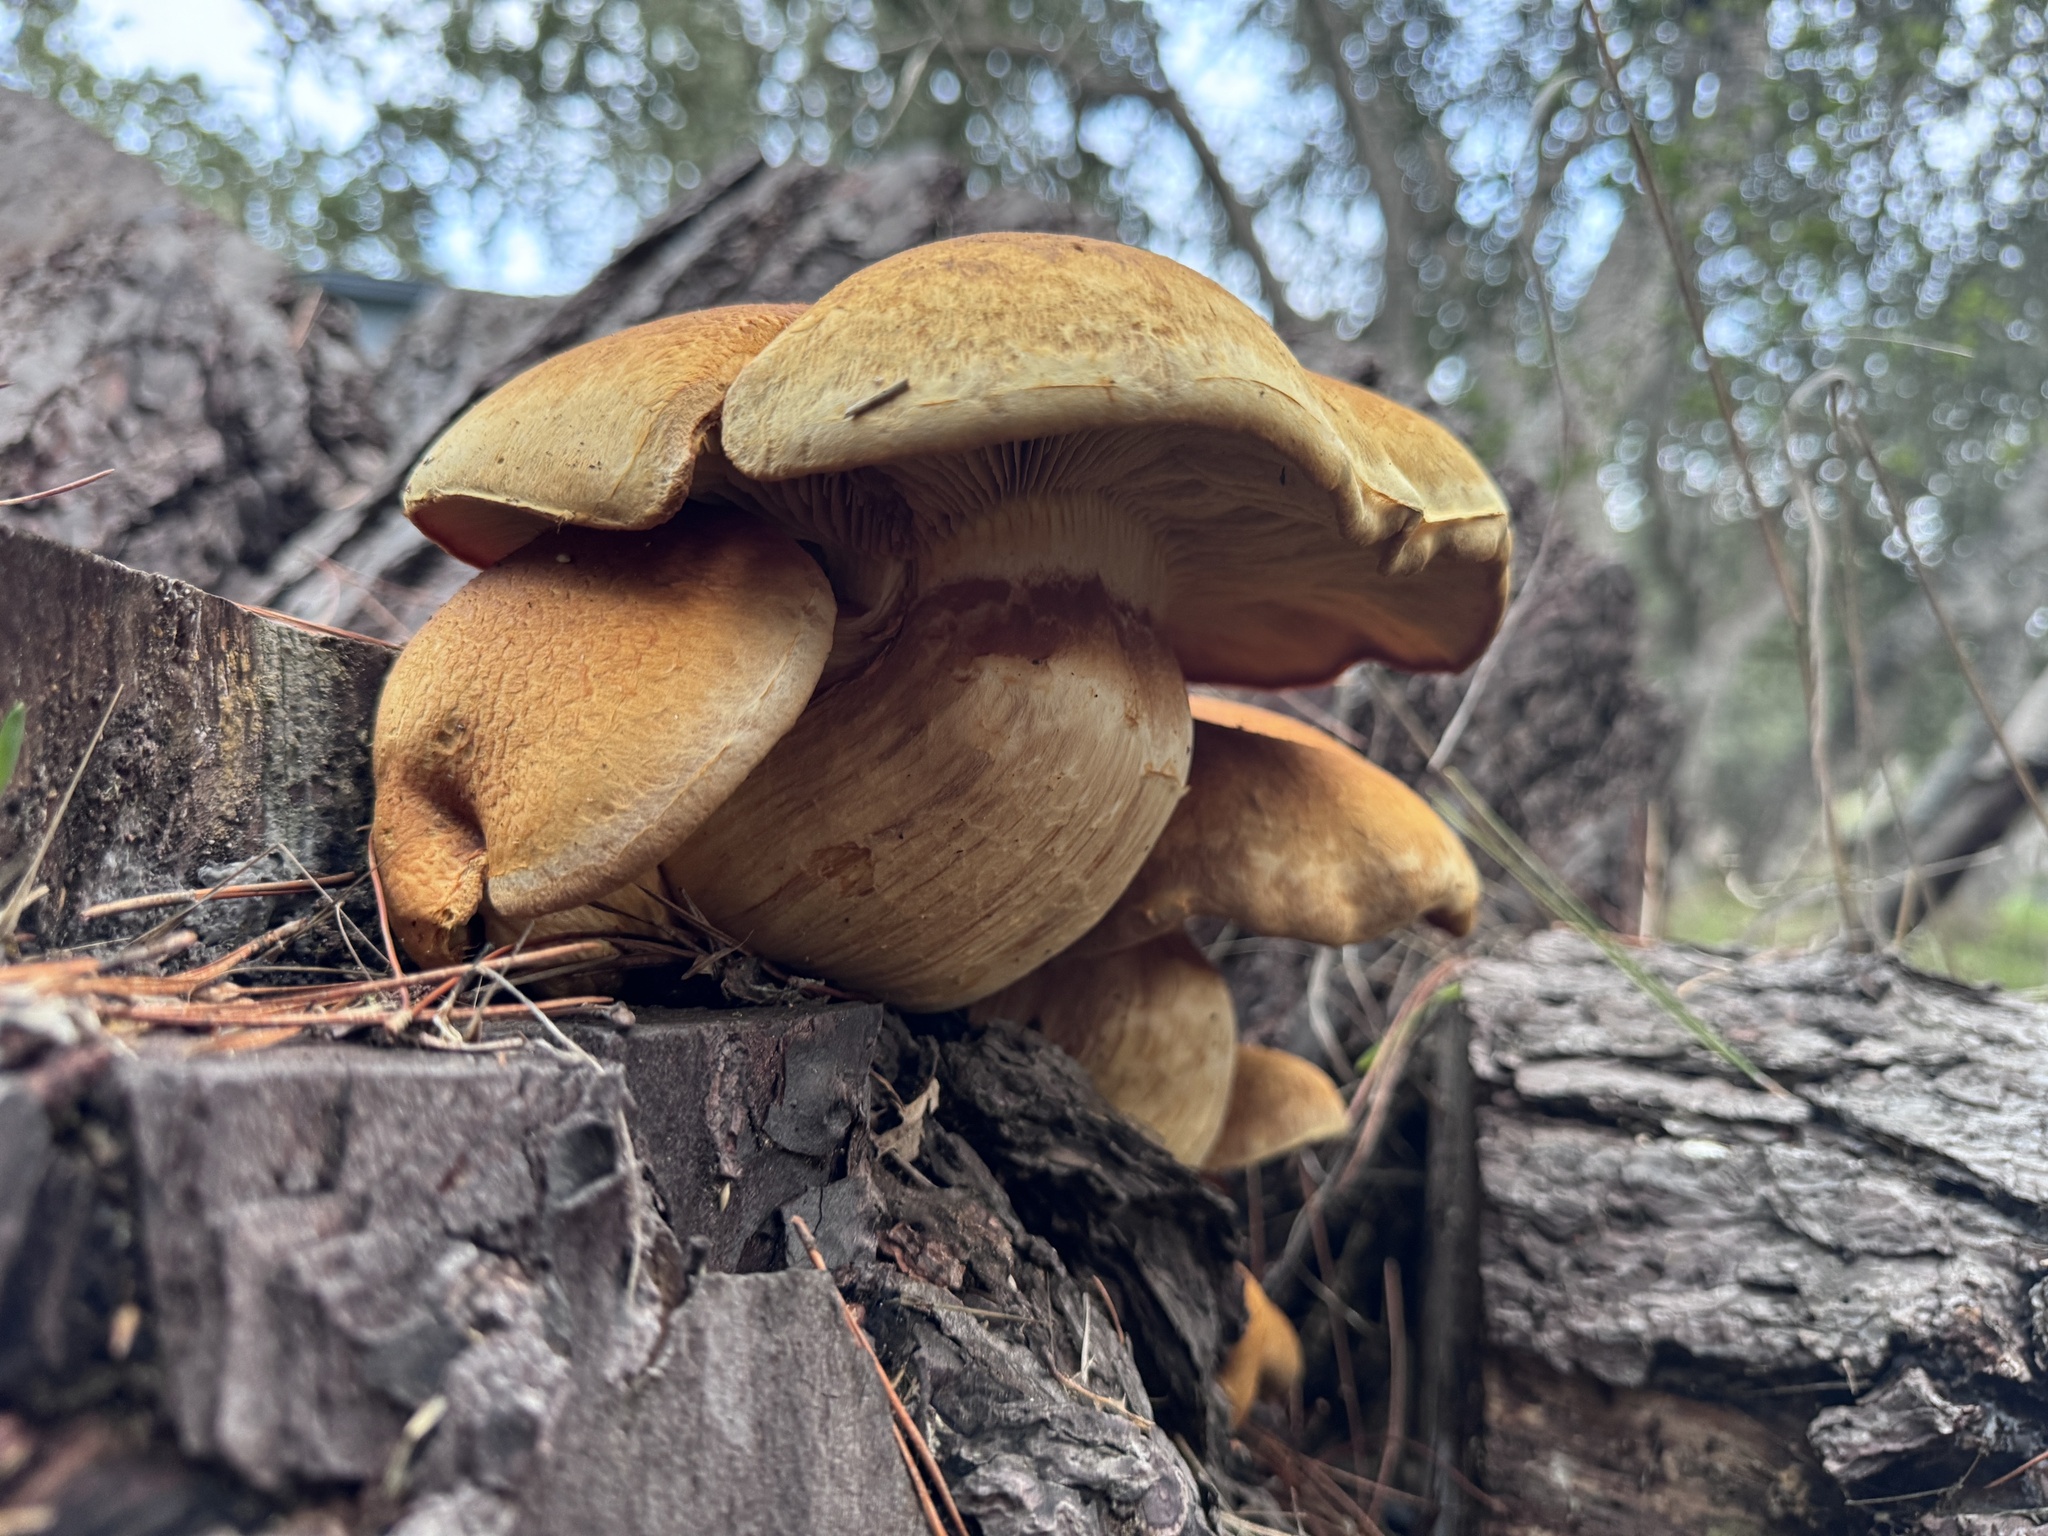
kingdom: Fungi
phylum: Basidiomycota
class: Agaricomycetes
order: Agaricales
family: Hymenogastraceae
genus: Gymnopilus
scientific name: Gymnopilus ventricosus
